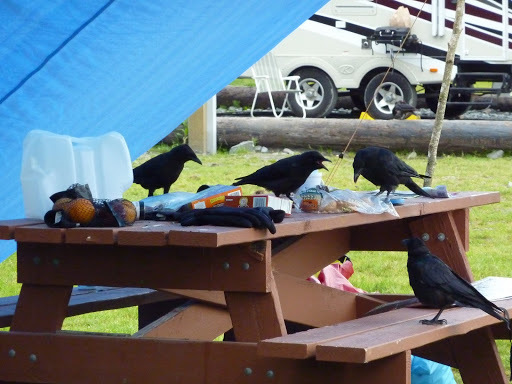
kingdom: Animalia
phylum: Chordata
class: Aves
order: Passeriformes
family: Corvidae
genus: Corvus
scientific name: Corvus brachyrhynchos
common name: American crow
